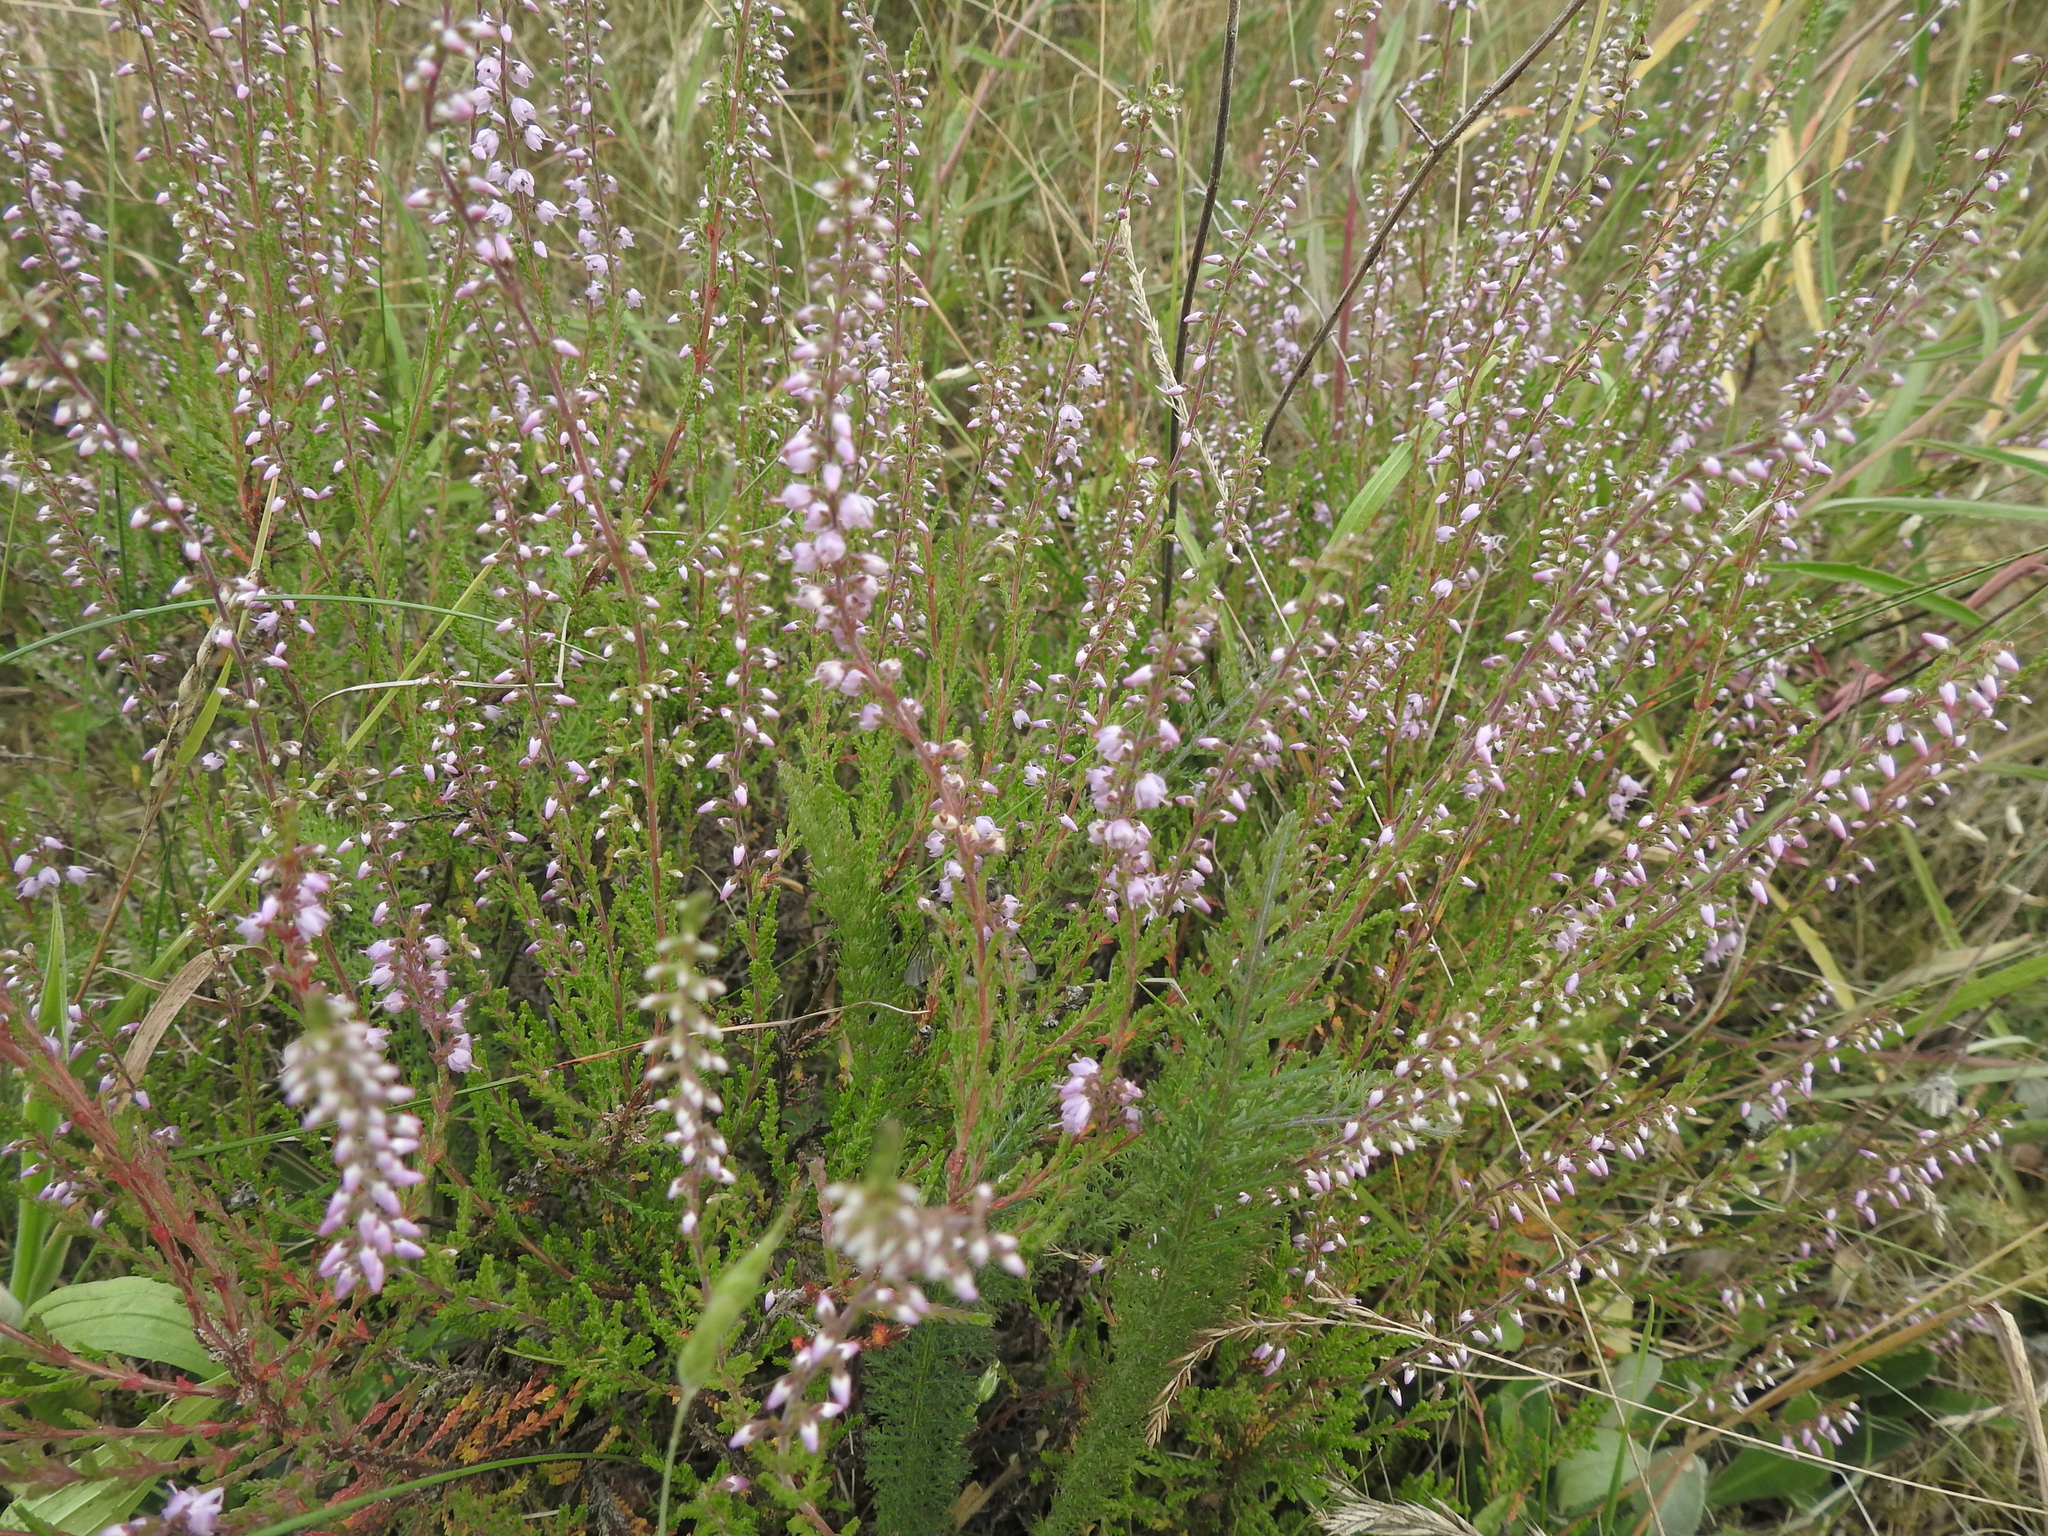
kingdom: Plantae
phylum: Tracheophyta
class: Magnoliopsida
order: Ericales
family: Ericaceae
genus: Calluna
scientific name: Calluna vulgaris
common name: Heather
